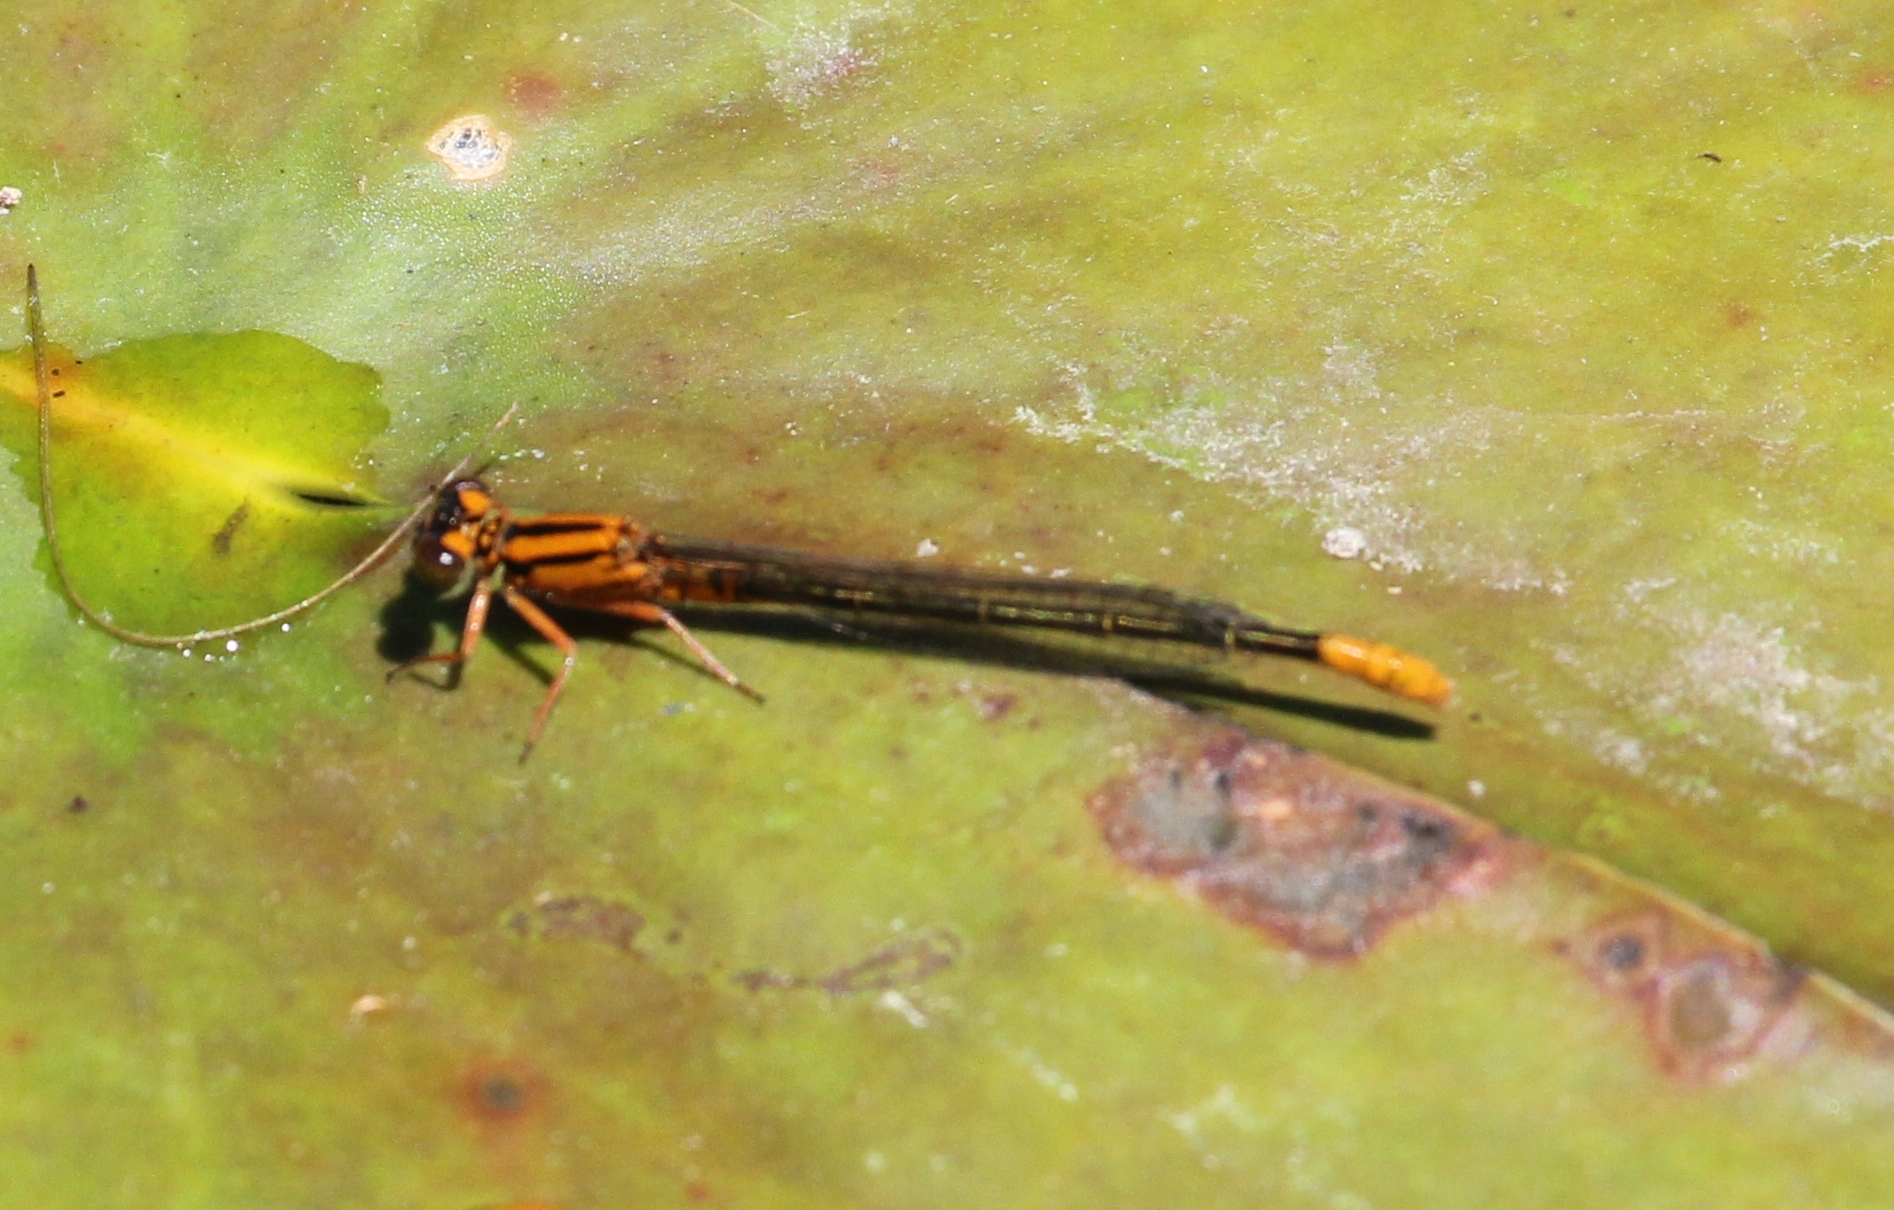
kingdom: Animalia
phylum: Arthropoda
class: Insecta
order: Odonata
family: Coenagrionidae
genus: Ischnura
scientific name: Ischnura kellicotti
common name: Lilypad forktail
